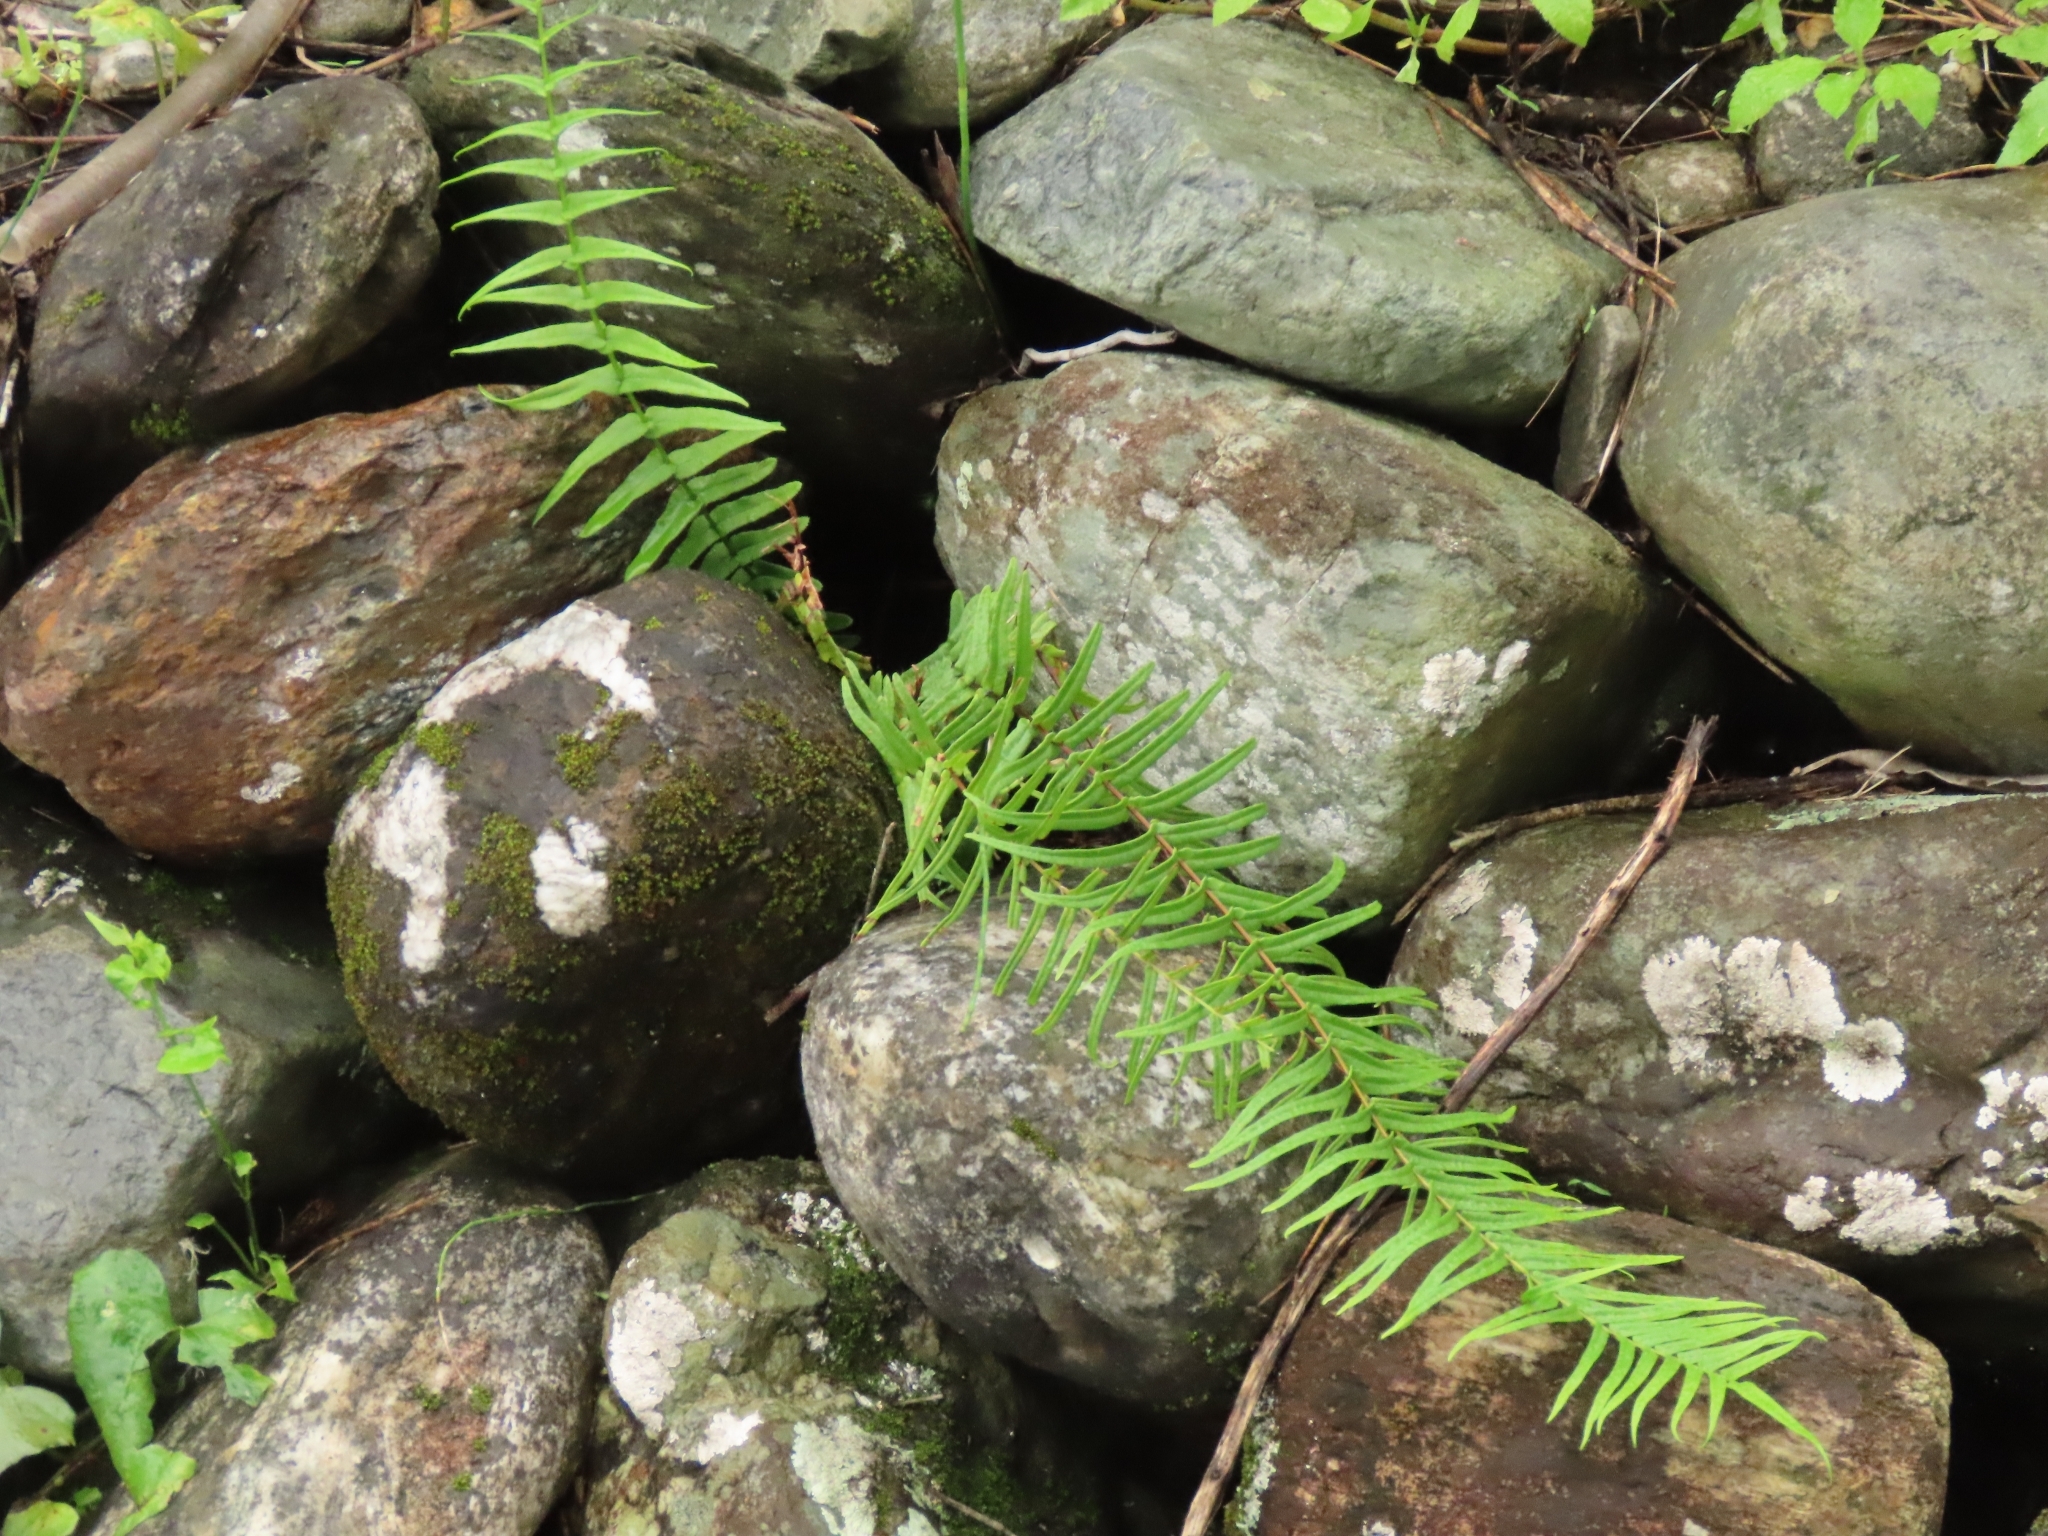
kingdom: Plantae
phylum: Tracheophyta
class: Polypodiopsida
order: Polypodiales
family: Pteridaceae
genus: Pteris
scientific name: Pteris vittata
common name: Ladder brake
